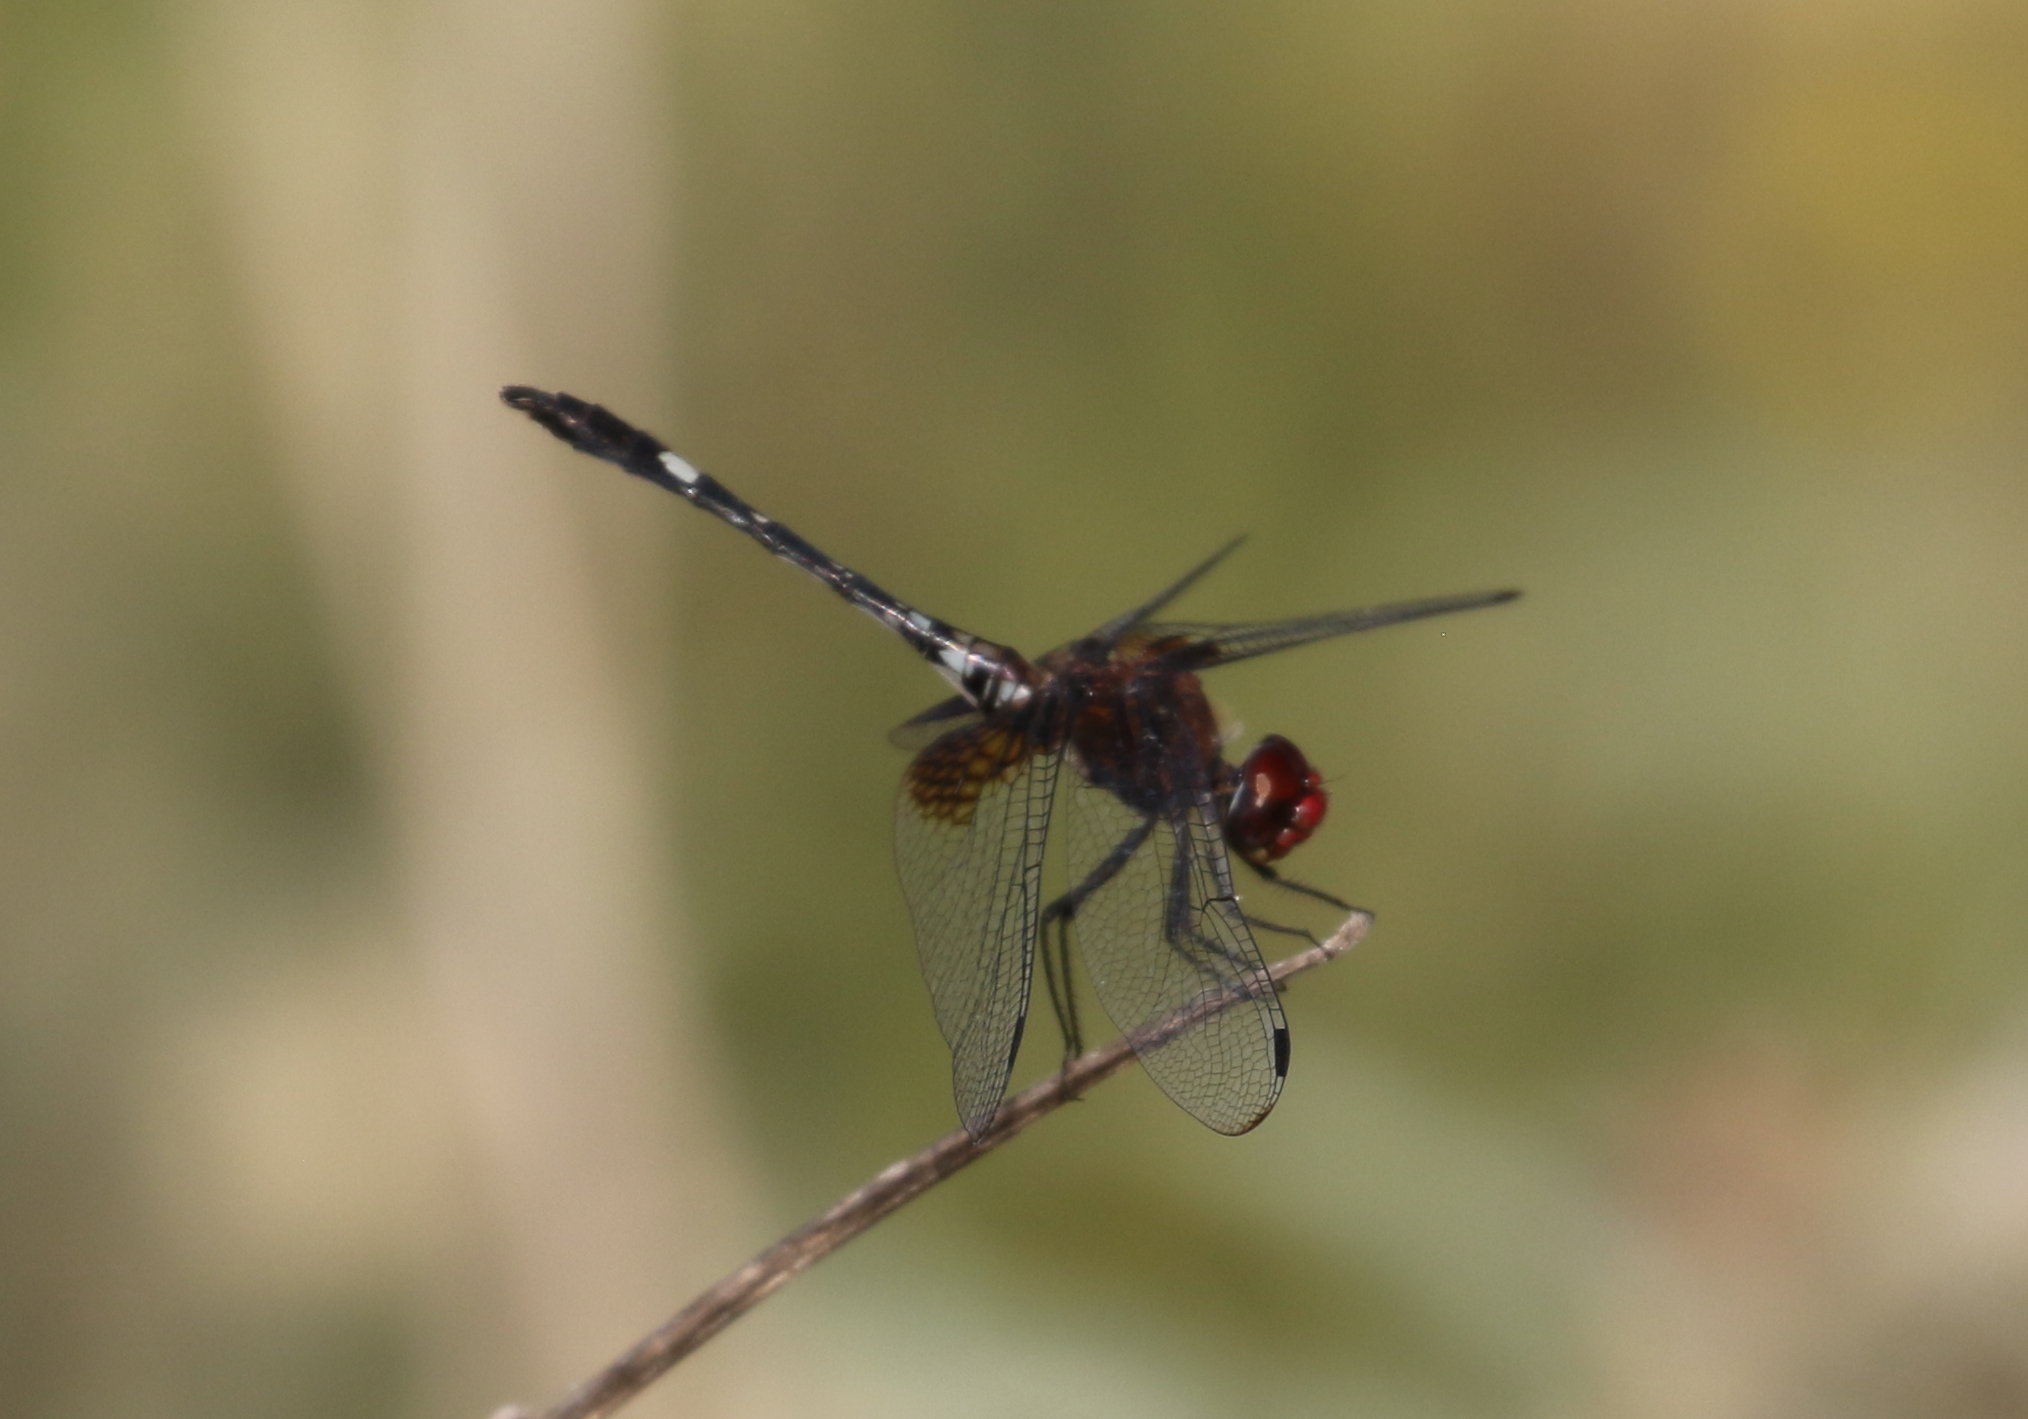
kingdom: Animalia
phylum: Arthropoda
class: Insecta
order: Odonata
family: Libellulidae
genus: Dythemis
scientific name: Dythemis fugax
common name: Checkered setwing
